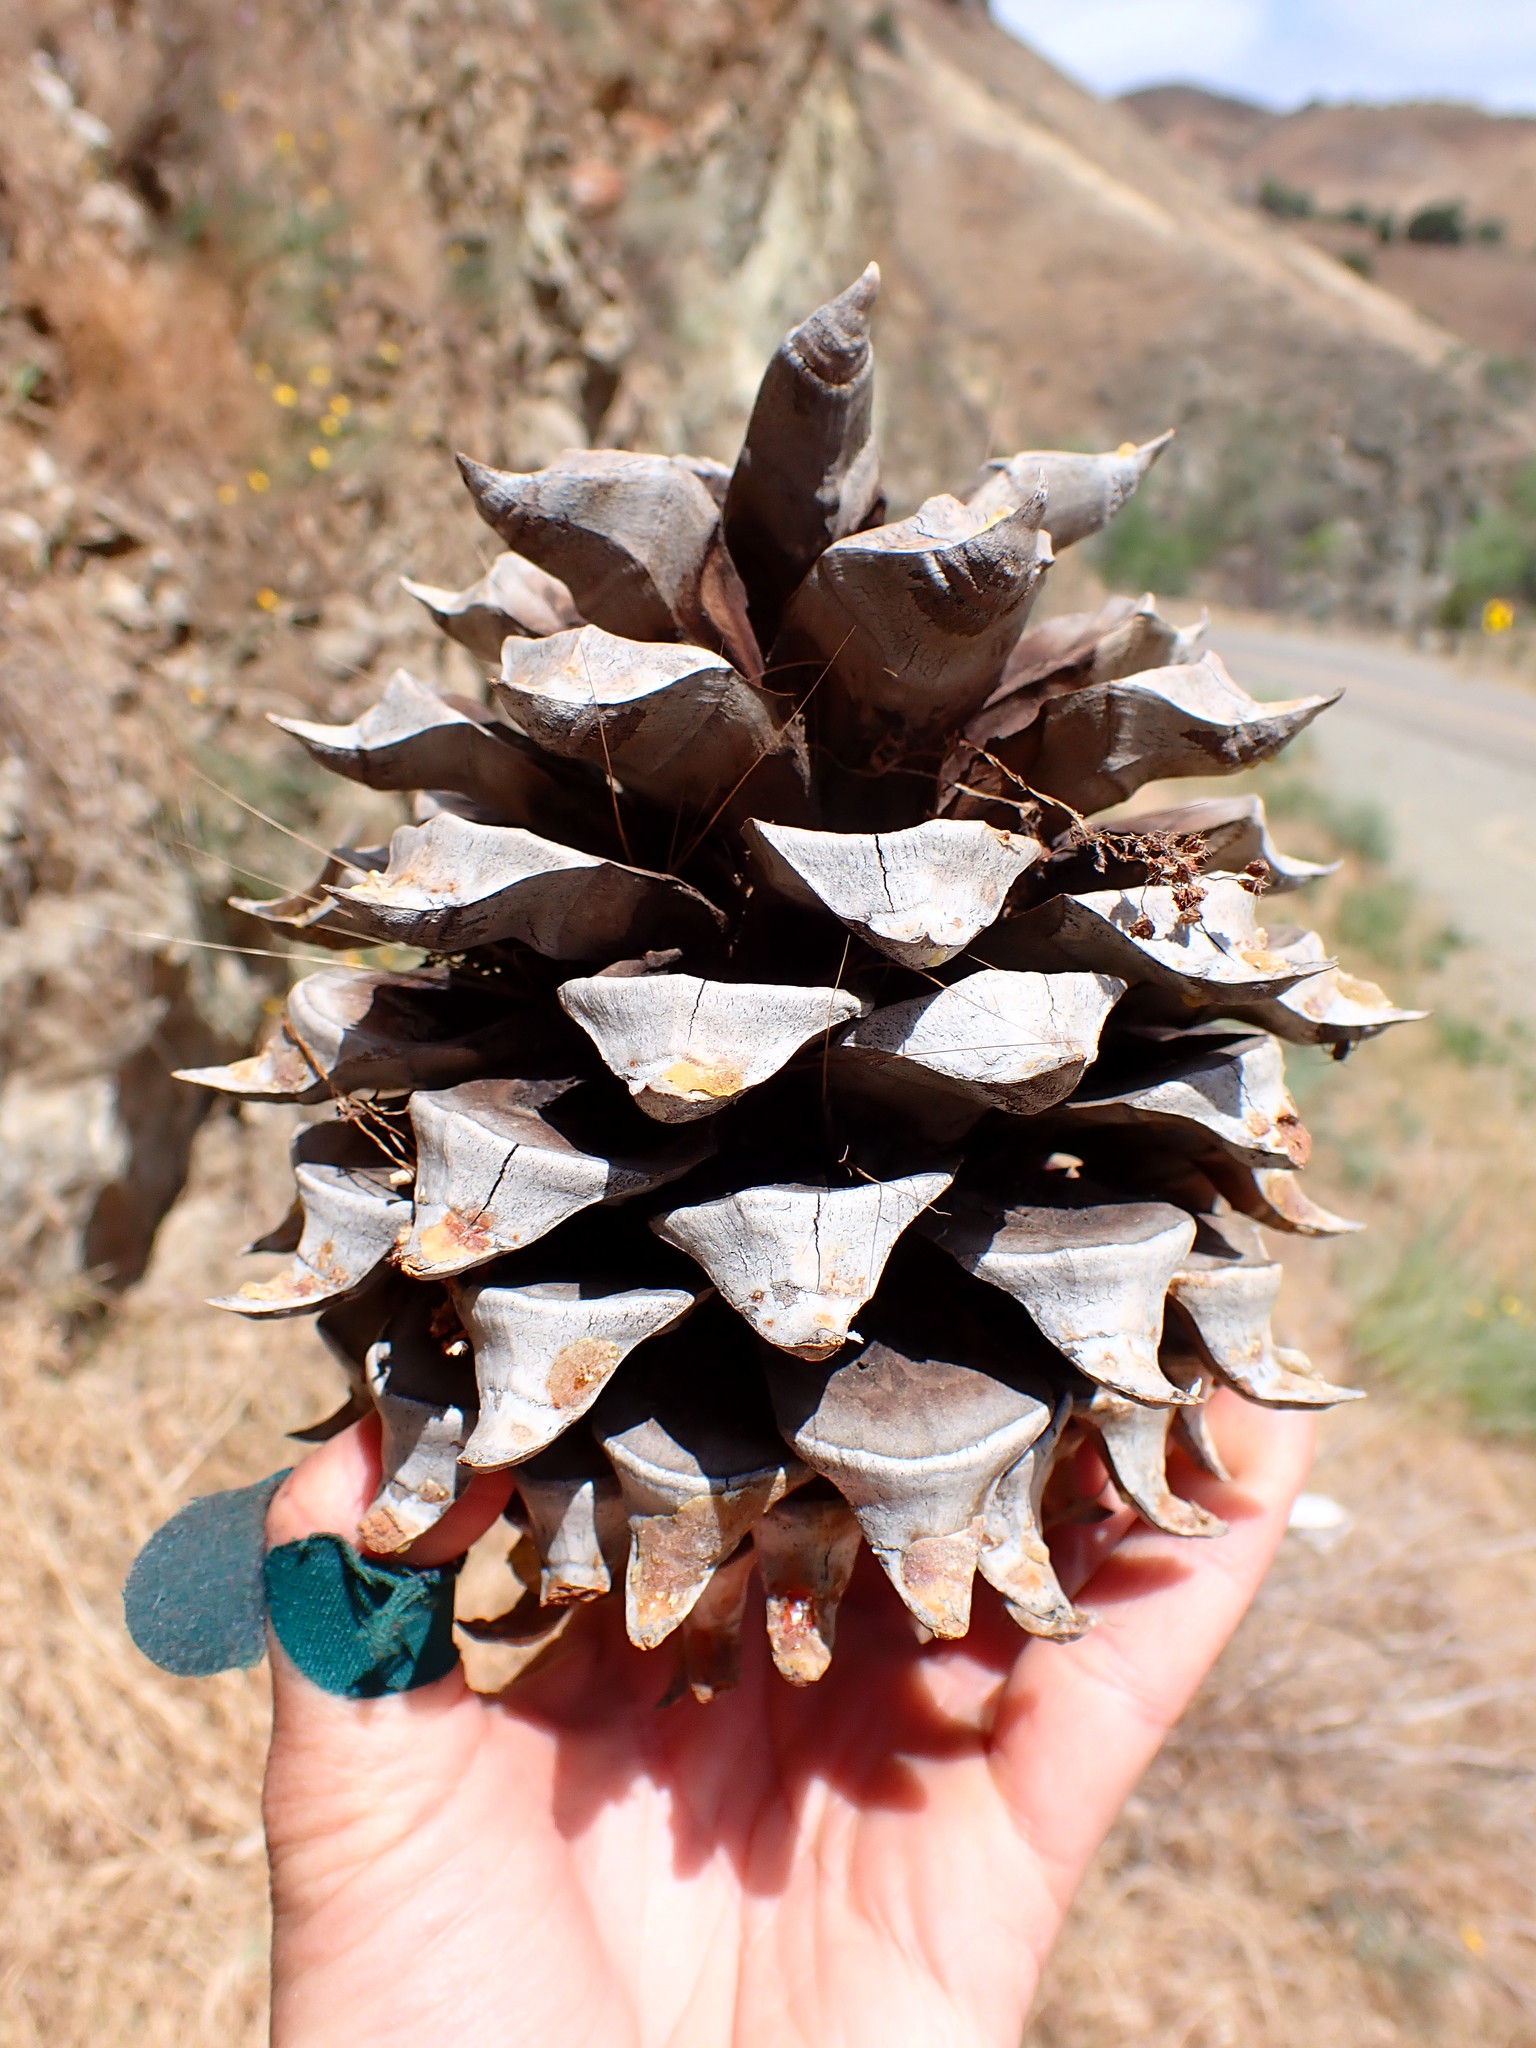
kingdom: Plantae
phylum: Tracheophyta
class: Pinopsida
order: Pinales
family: Pinaceae
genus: Pinus
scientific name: Pinus sabiniana
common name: Bull pine
